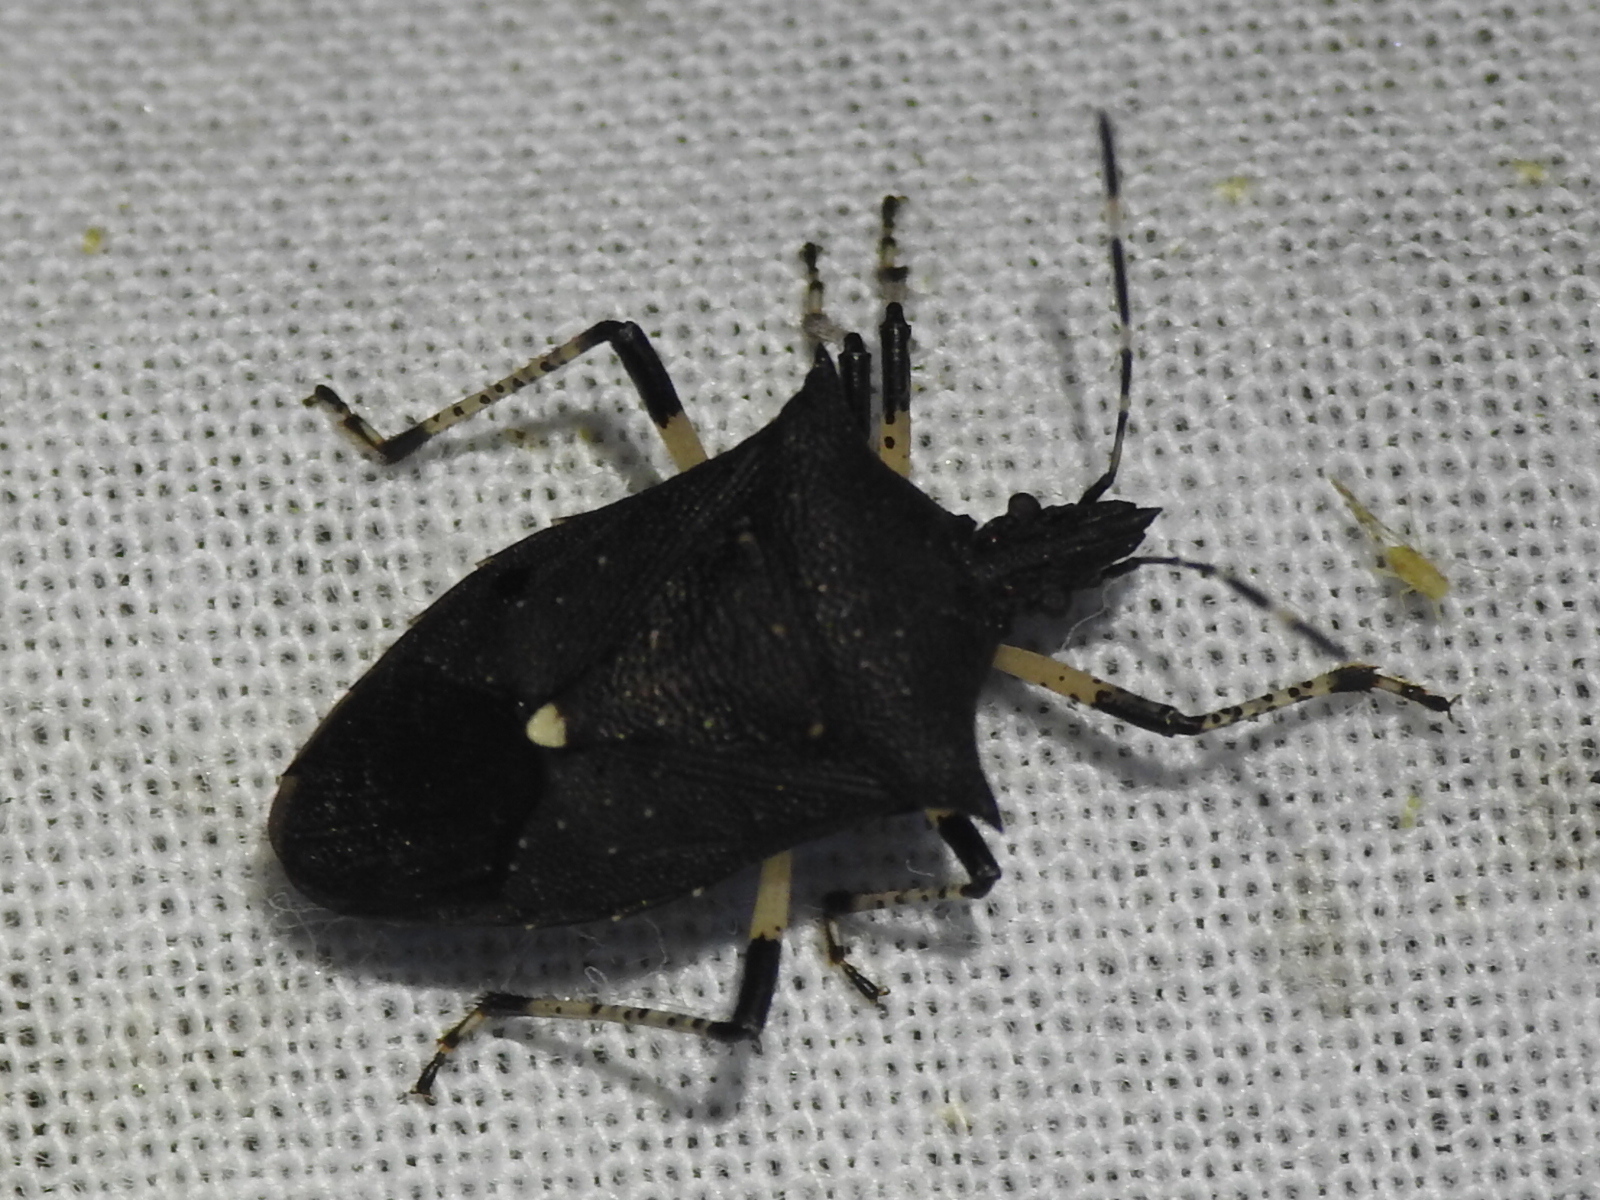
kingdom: Animalia
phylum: Arthropoda
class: Insecta
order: Hemiptera
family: Pentatomidae
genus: Proxys
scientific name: Proxys punctulatus
